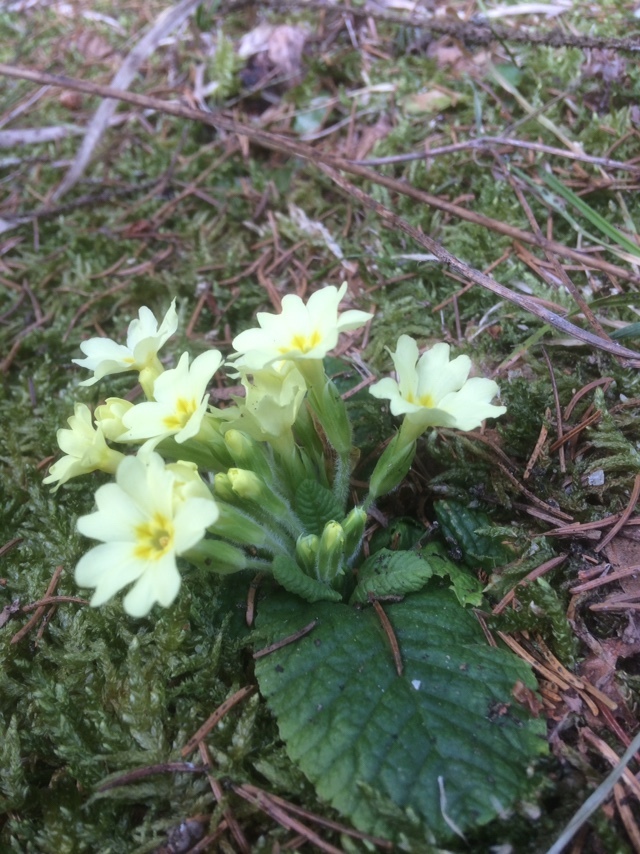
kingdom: Plantae
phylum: Tracheophyta
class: Magnoliopsida
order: Ericales
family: Primulaceae
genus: Primula
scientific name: Primula vulgaris
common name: Primrose
